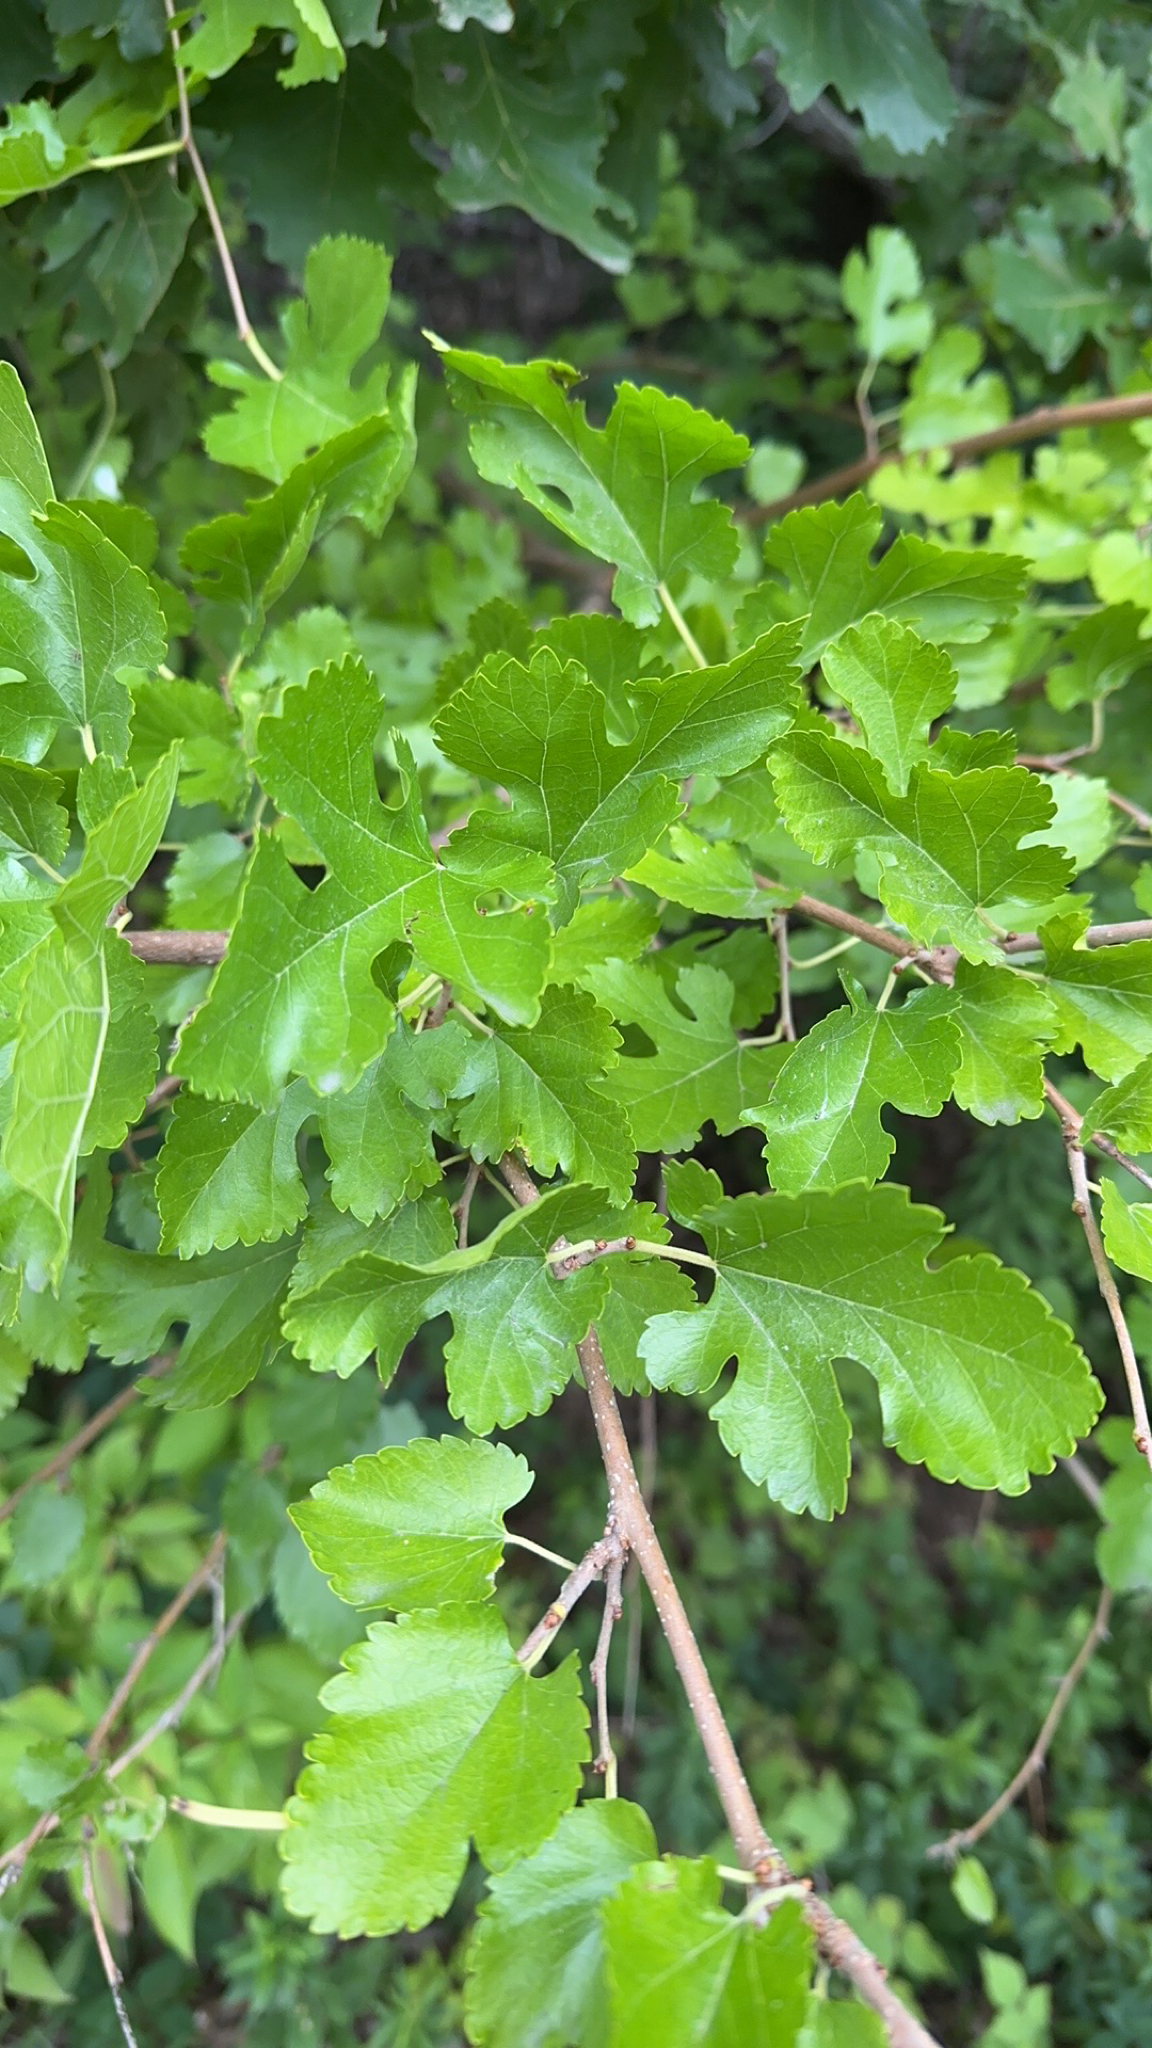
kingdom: Plantae
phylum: Tracheophyta
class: Magnoliopsida
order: Rosales
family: Moraceae
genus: Morus
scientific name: Morus alba
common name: White mulberry
